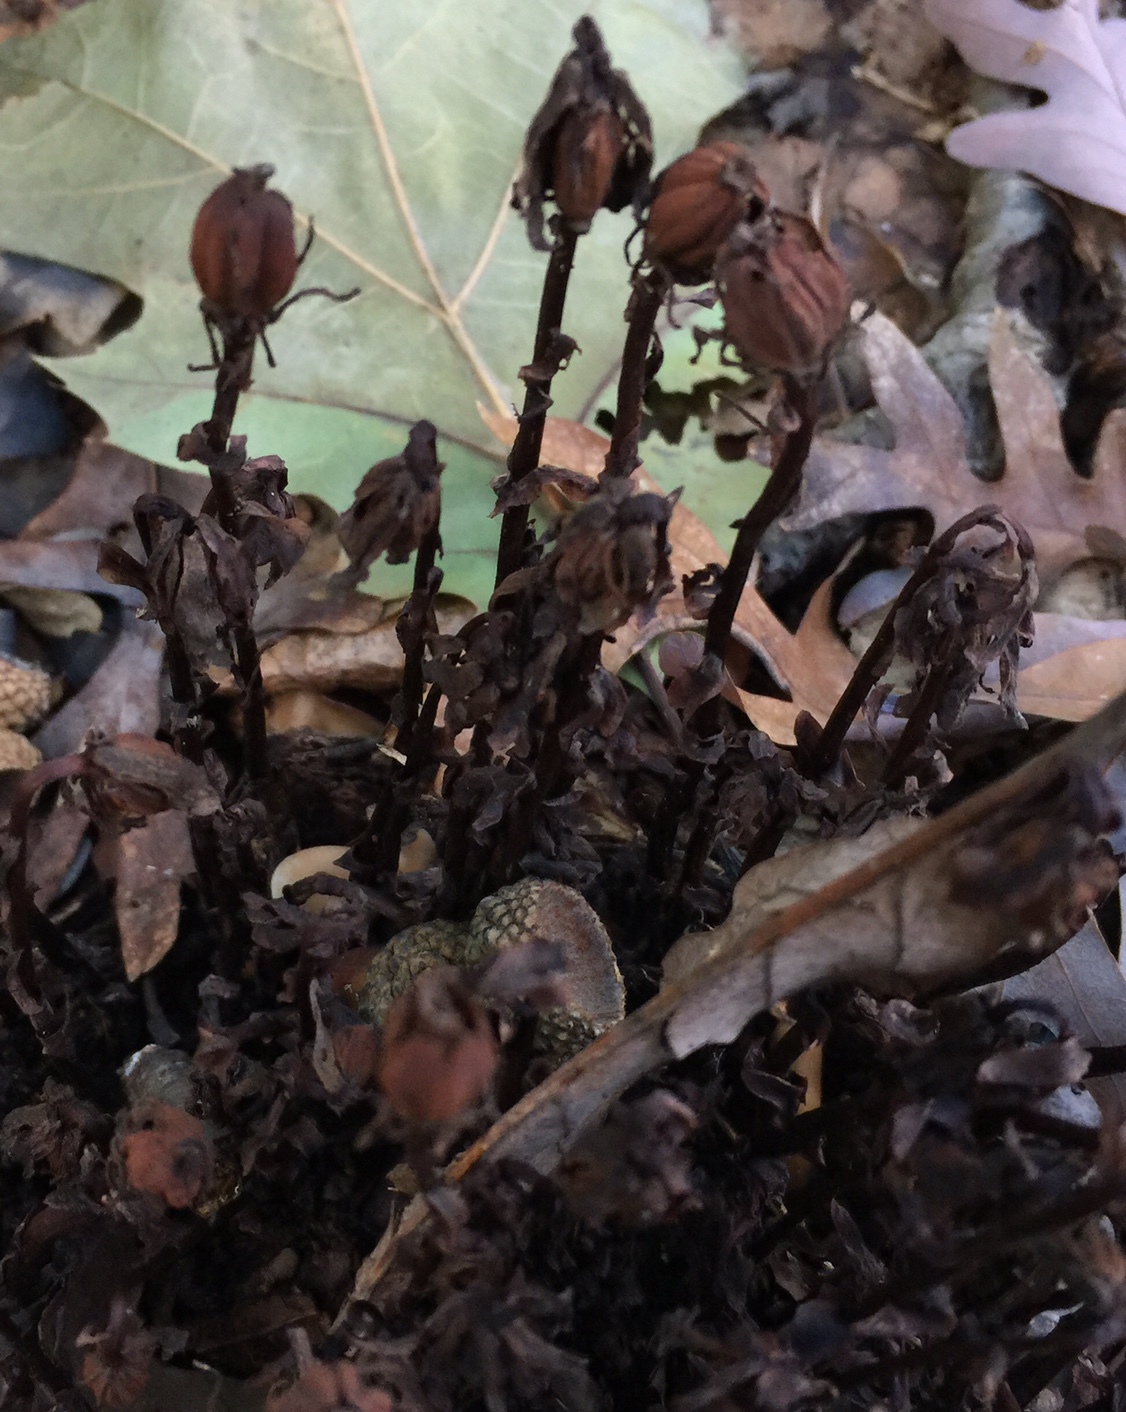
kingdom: Plantae
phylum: Tracheophyta
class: Magnoliopsida
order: Ericales
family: Ericaceae
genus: Monotropa
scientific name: Monotropa uniflora
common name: Convulsion root
